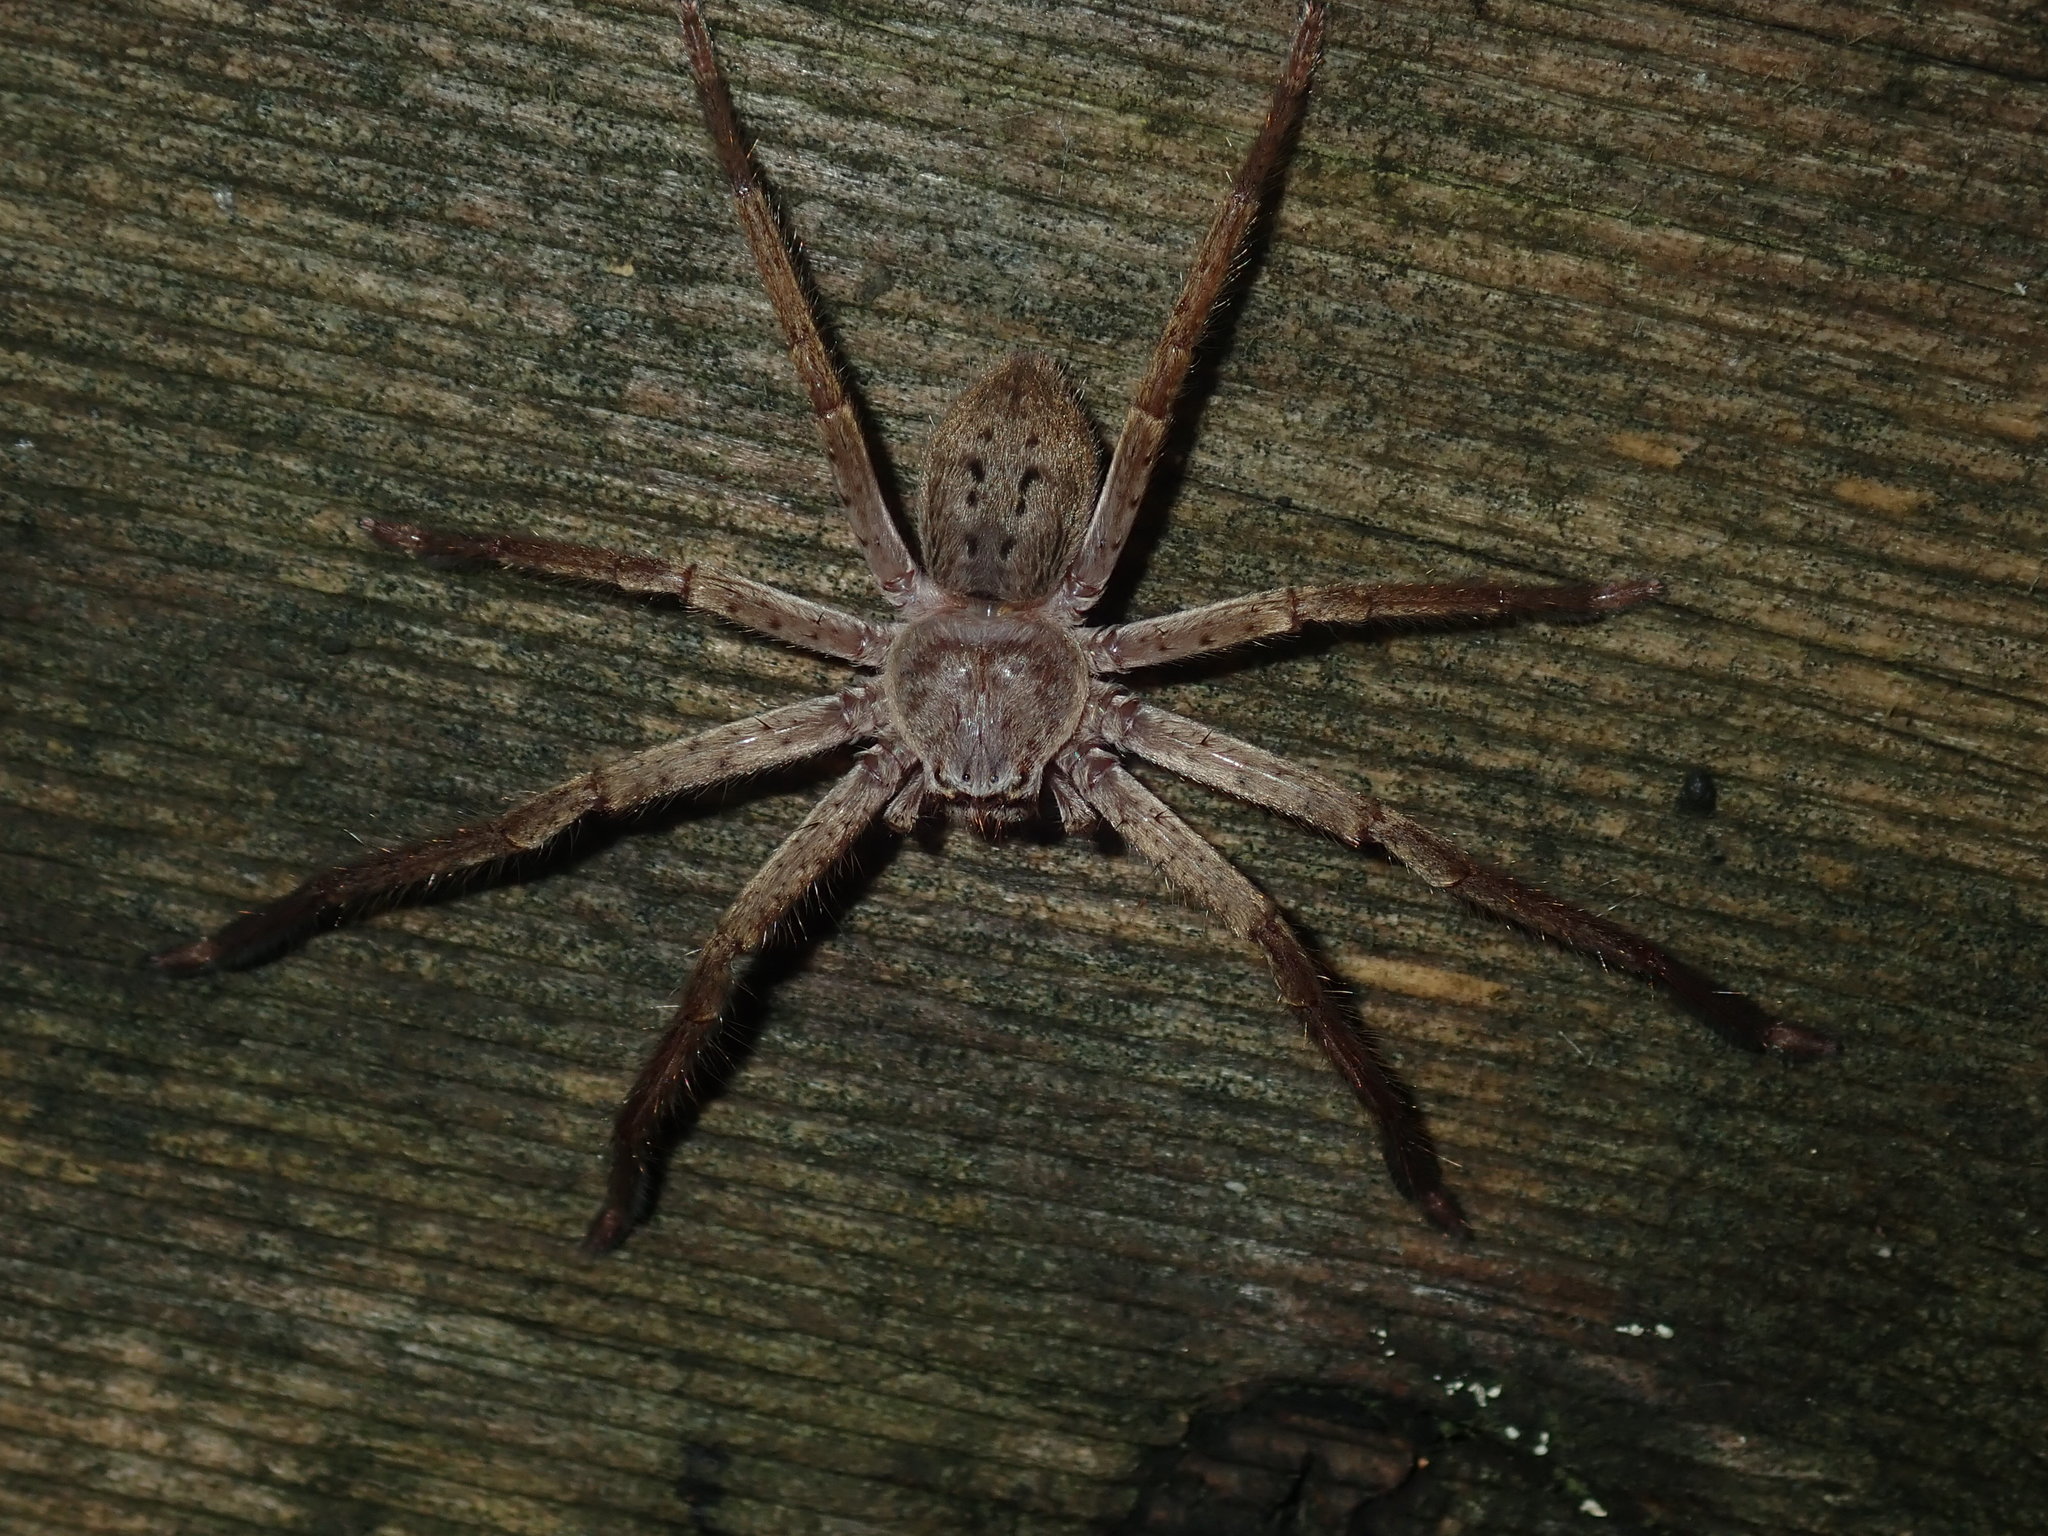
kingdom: Animalia
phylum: Arthropoda
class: Arachnida
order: Araneae
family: Sparassidae
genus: Isopeda
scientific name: Isopeda villosa
